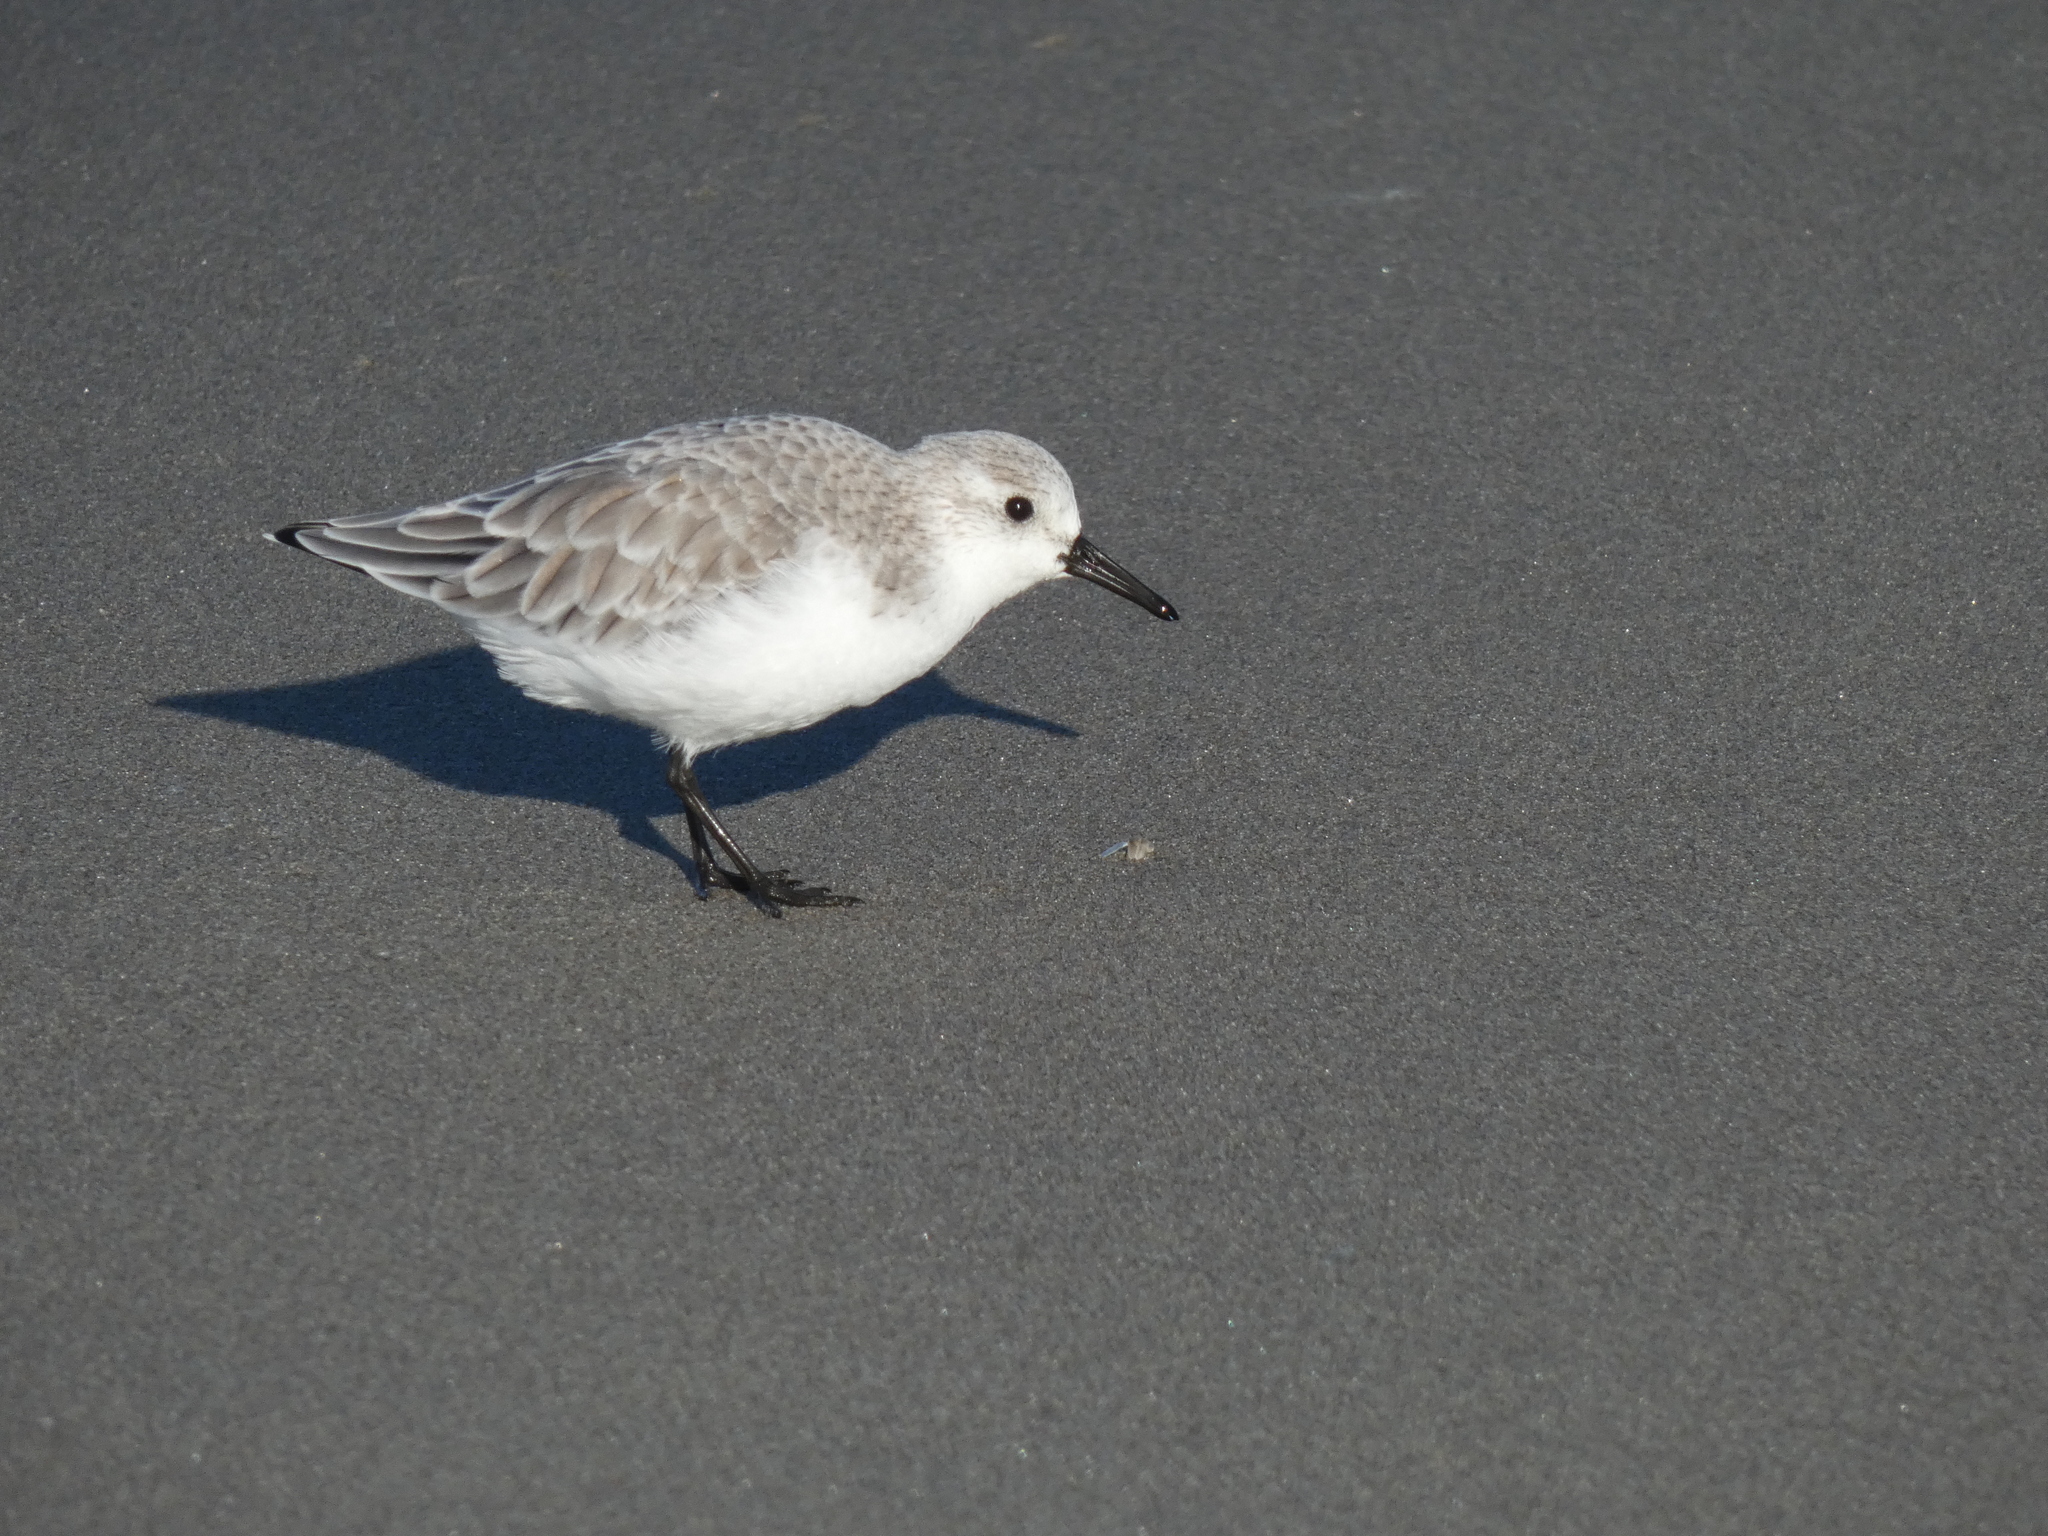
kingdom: Animalia
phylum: Chordata
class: Aves
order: Charadriiformes
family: Scolopacidae
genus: Calidris
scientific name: Calidris alba
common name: Sanderling
